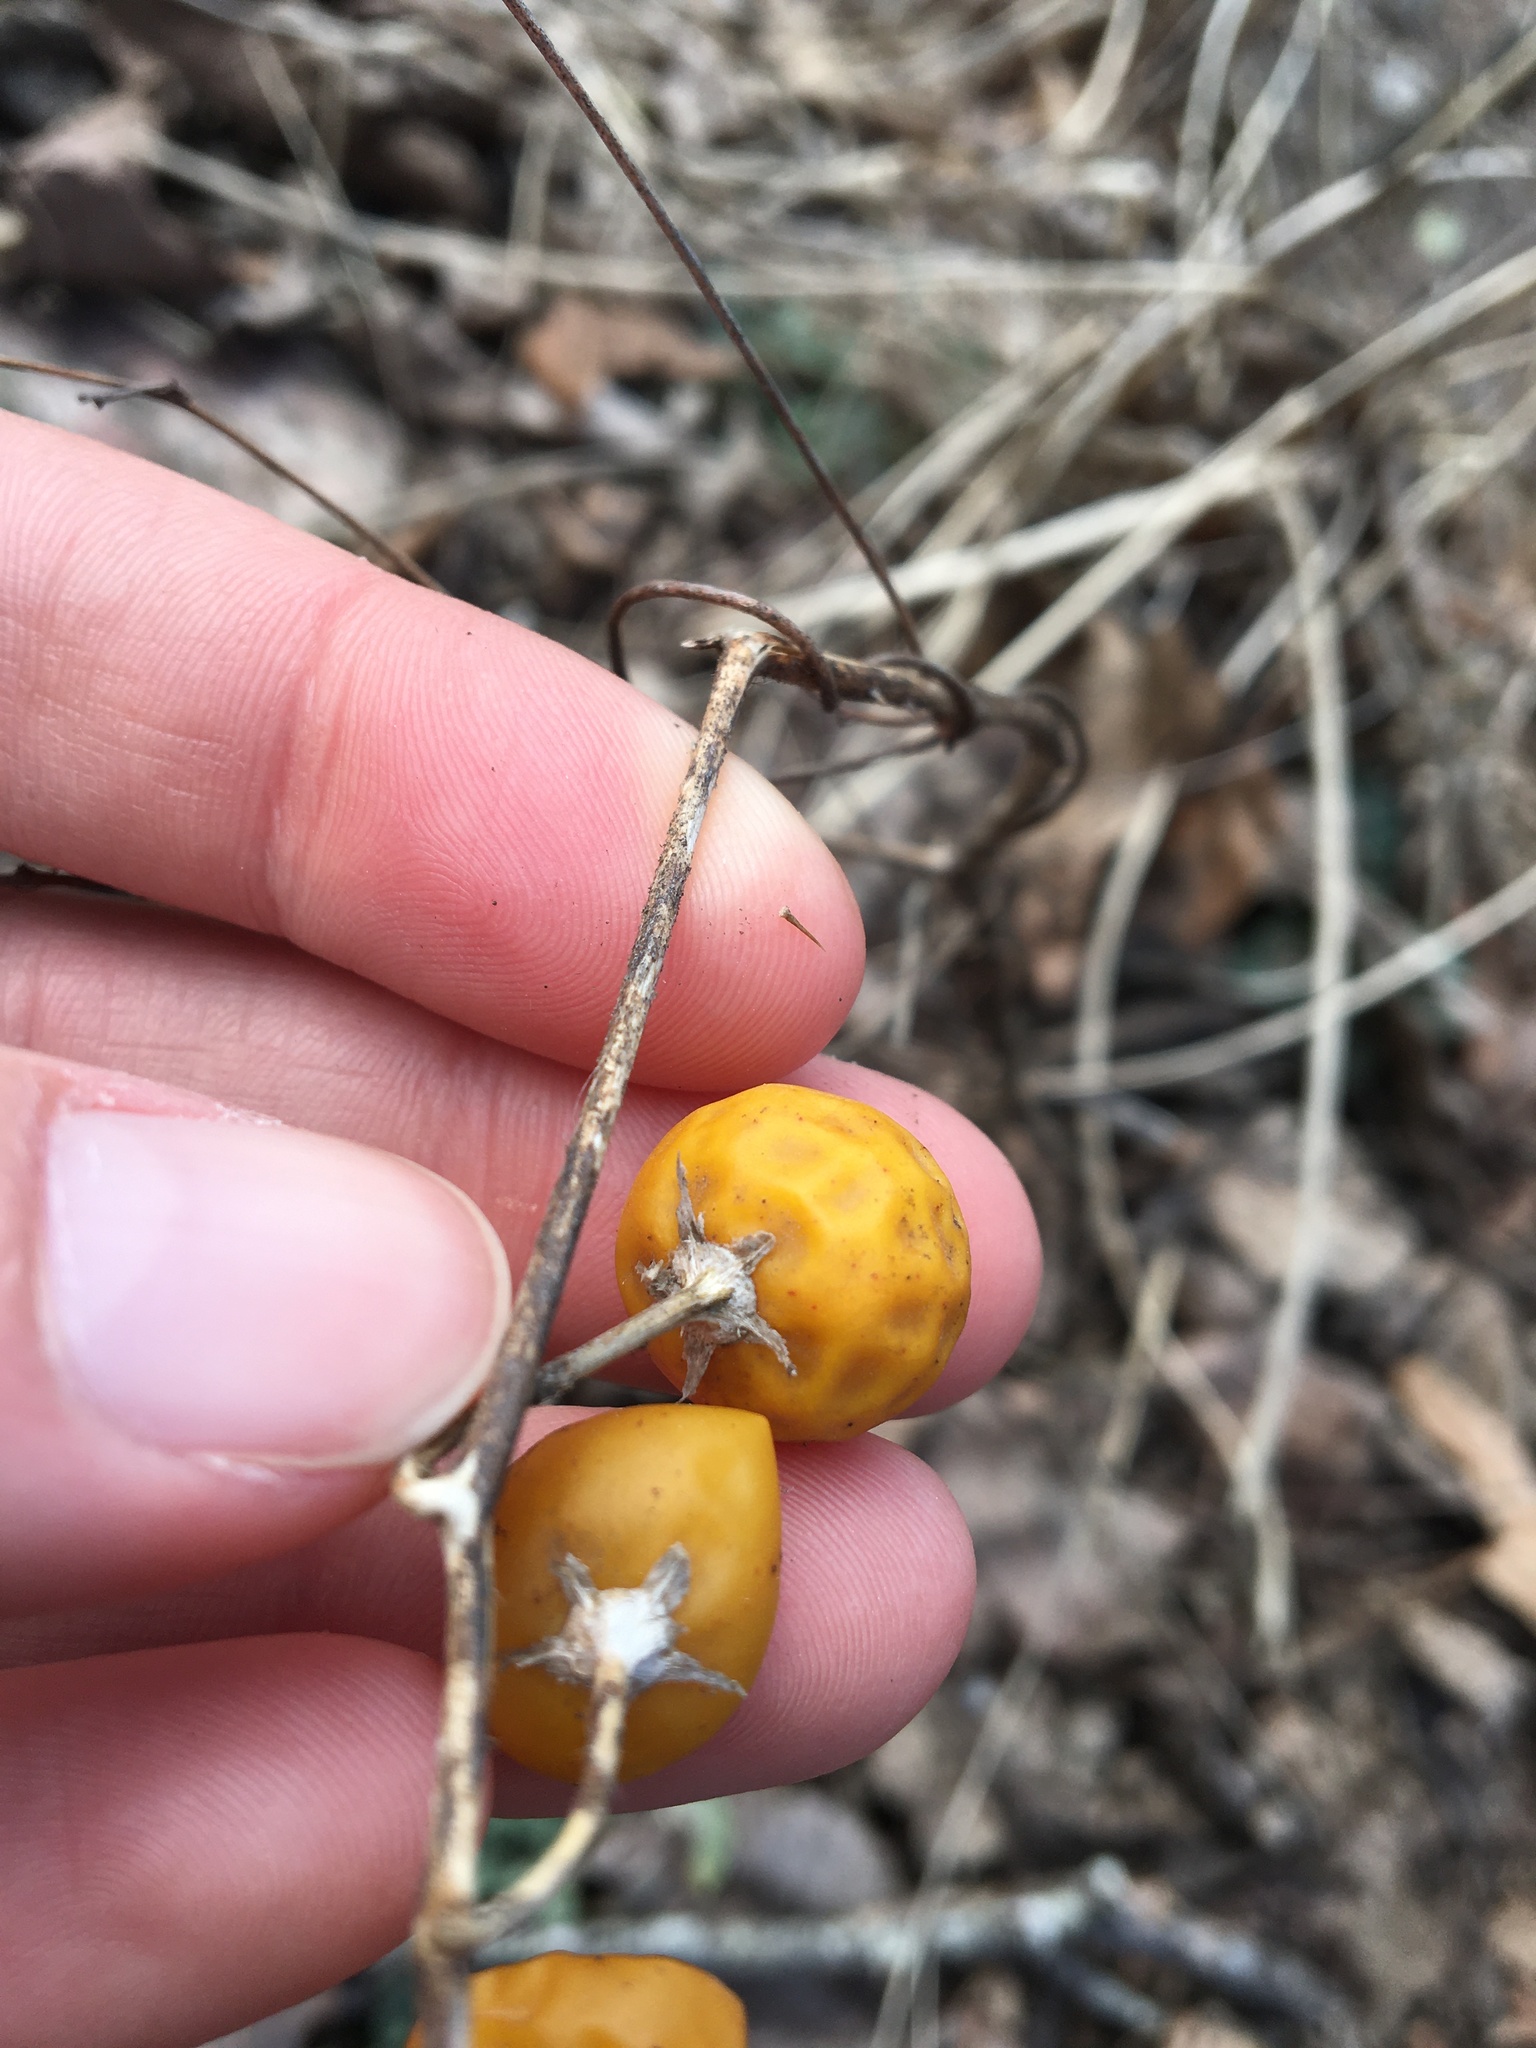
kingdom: Plantae
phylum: Tracheophyta
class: Magnoliopsida
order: Solanales
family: Solanaceae
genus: Solanum
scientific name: Solanum carolinense
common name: Horse-nettle
